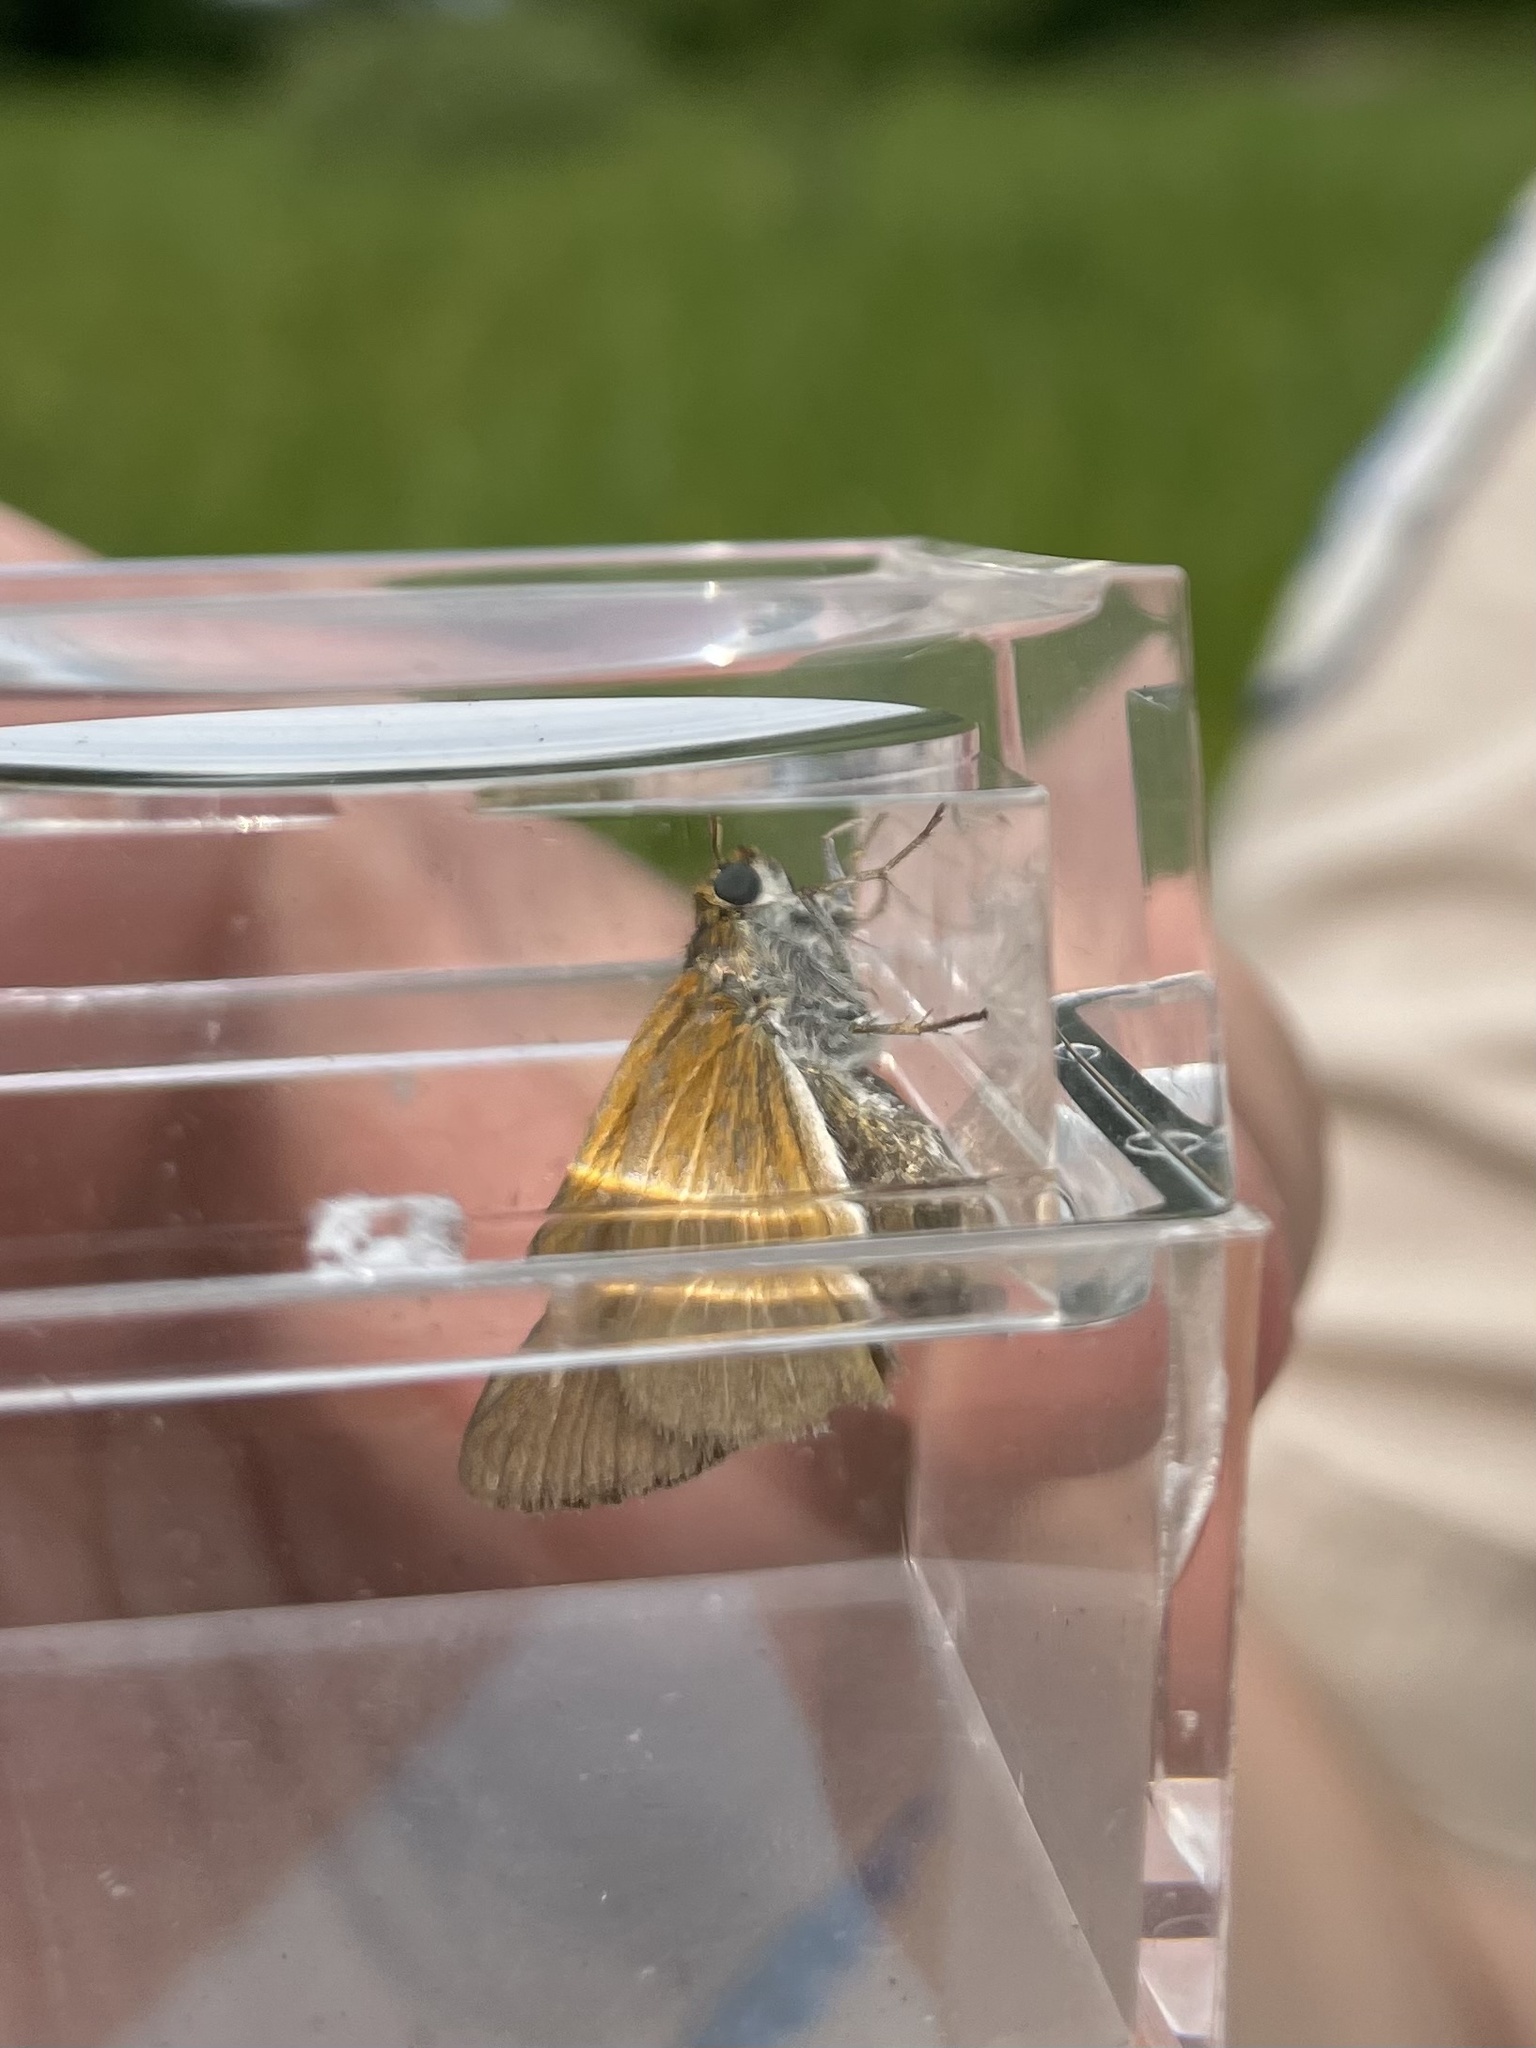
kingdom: Animalia
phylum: Arthropoda
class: Insecta
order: Lepidoptera
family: Hesperiidae
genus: Euphyes
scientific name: Euphyes bimacula
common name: Two-spotted skipper
